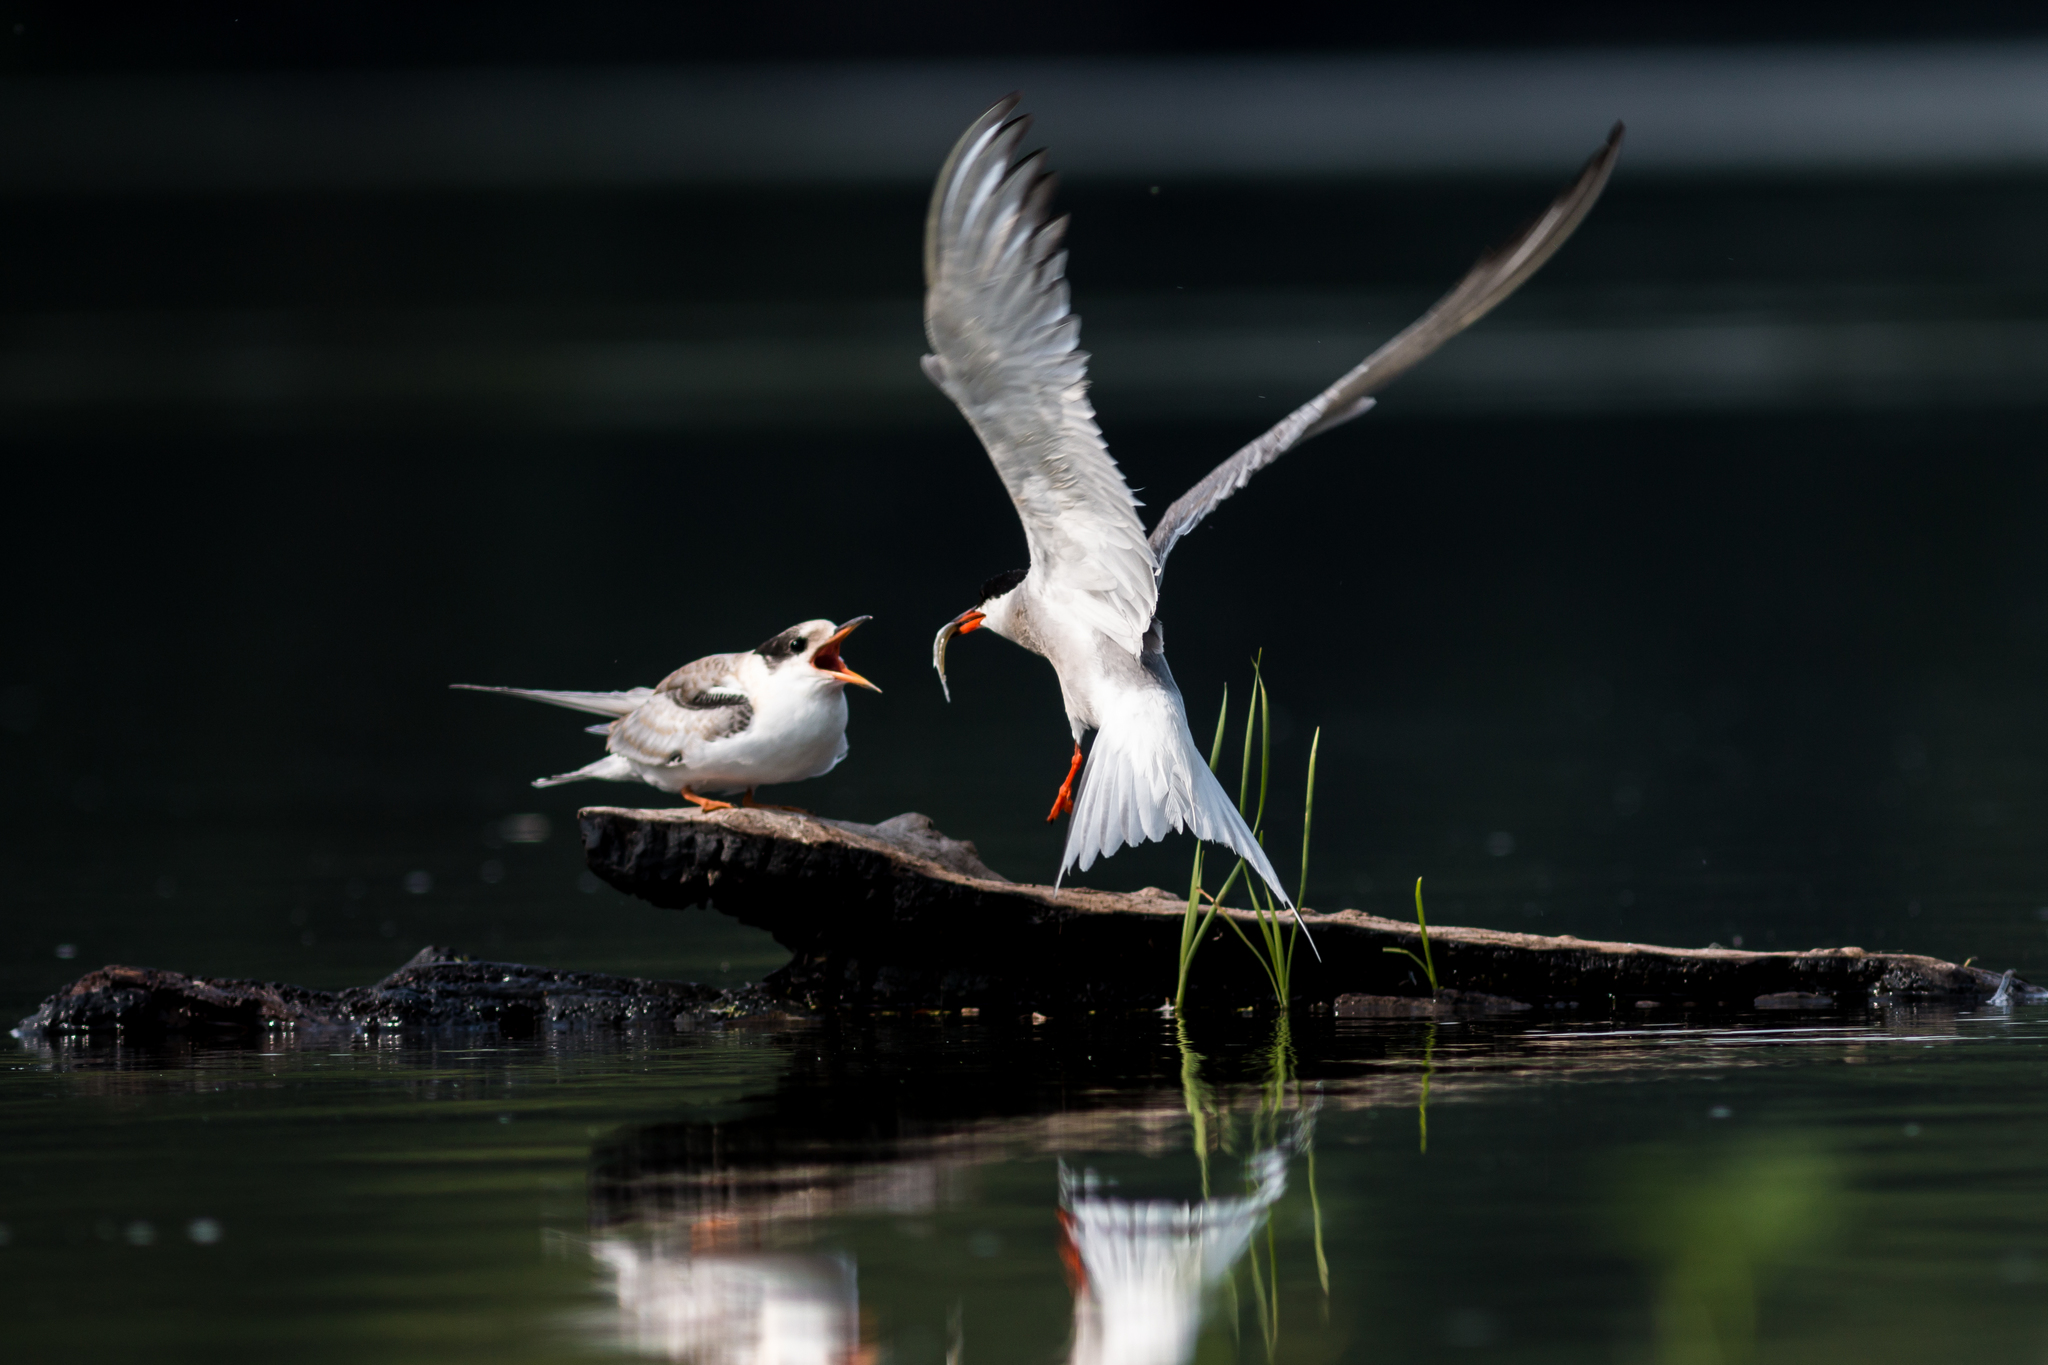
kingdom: Animalia
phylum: Chordata
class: Aves
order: Charadriiformes
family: Laridae
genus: Sterna
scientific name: Sterna hirundo
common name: Common tern
